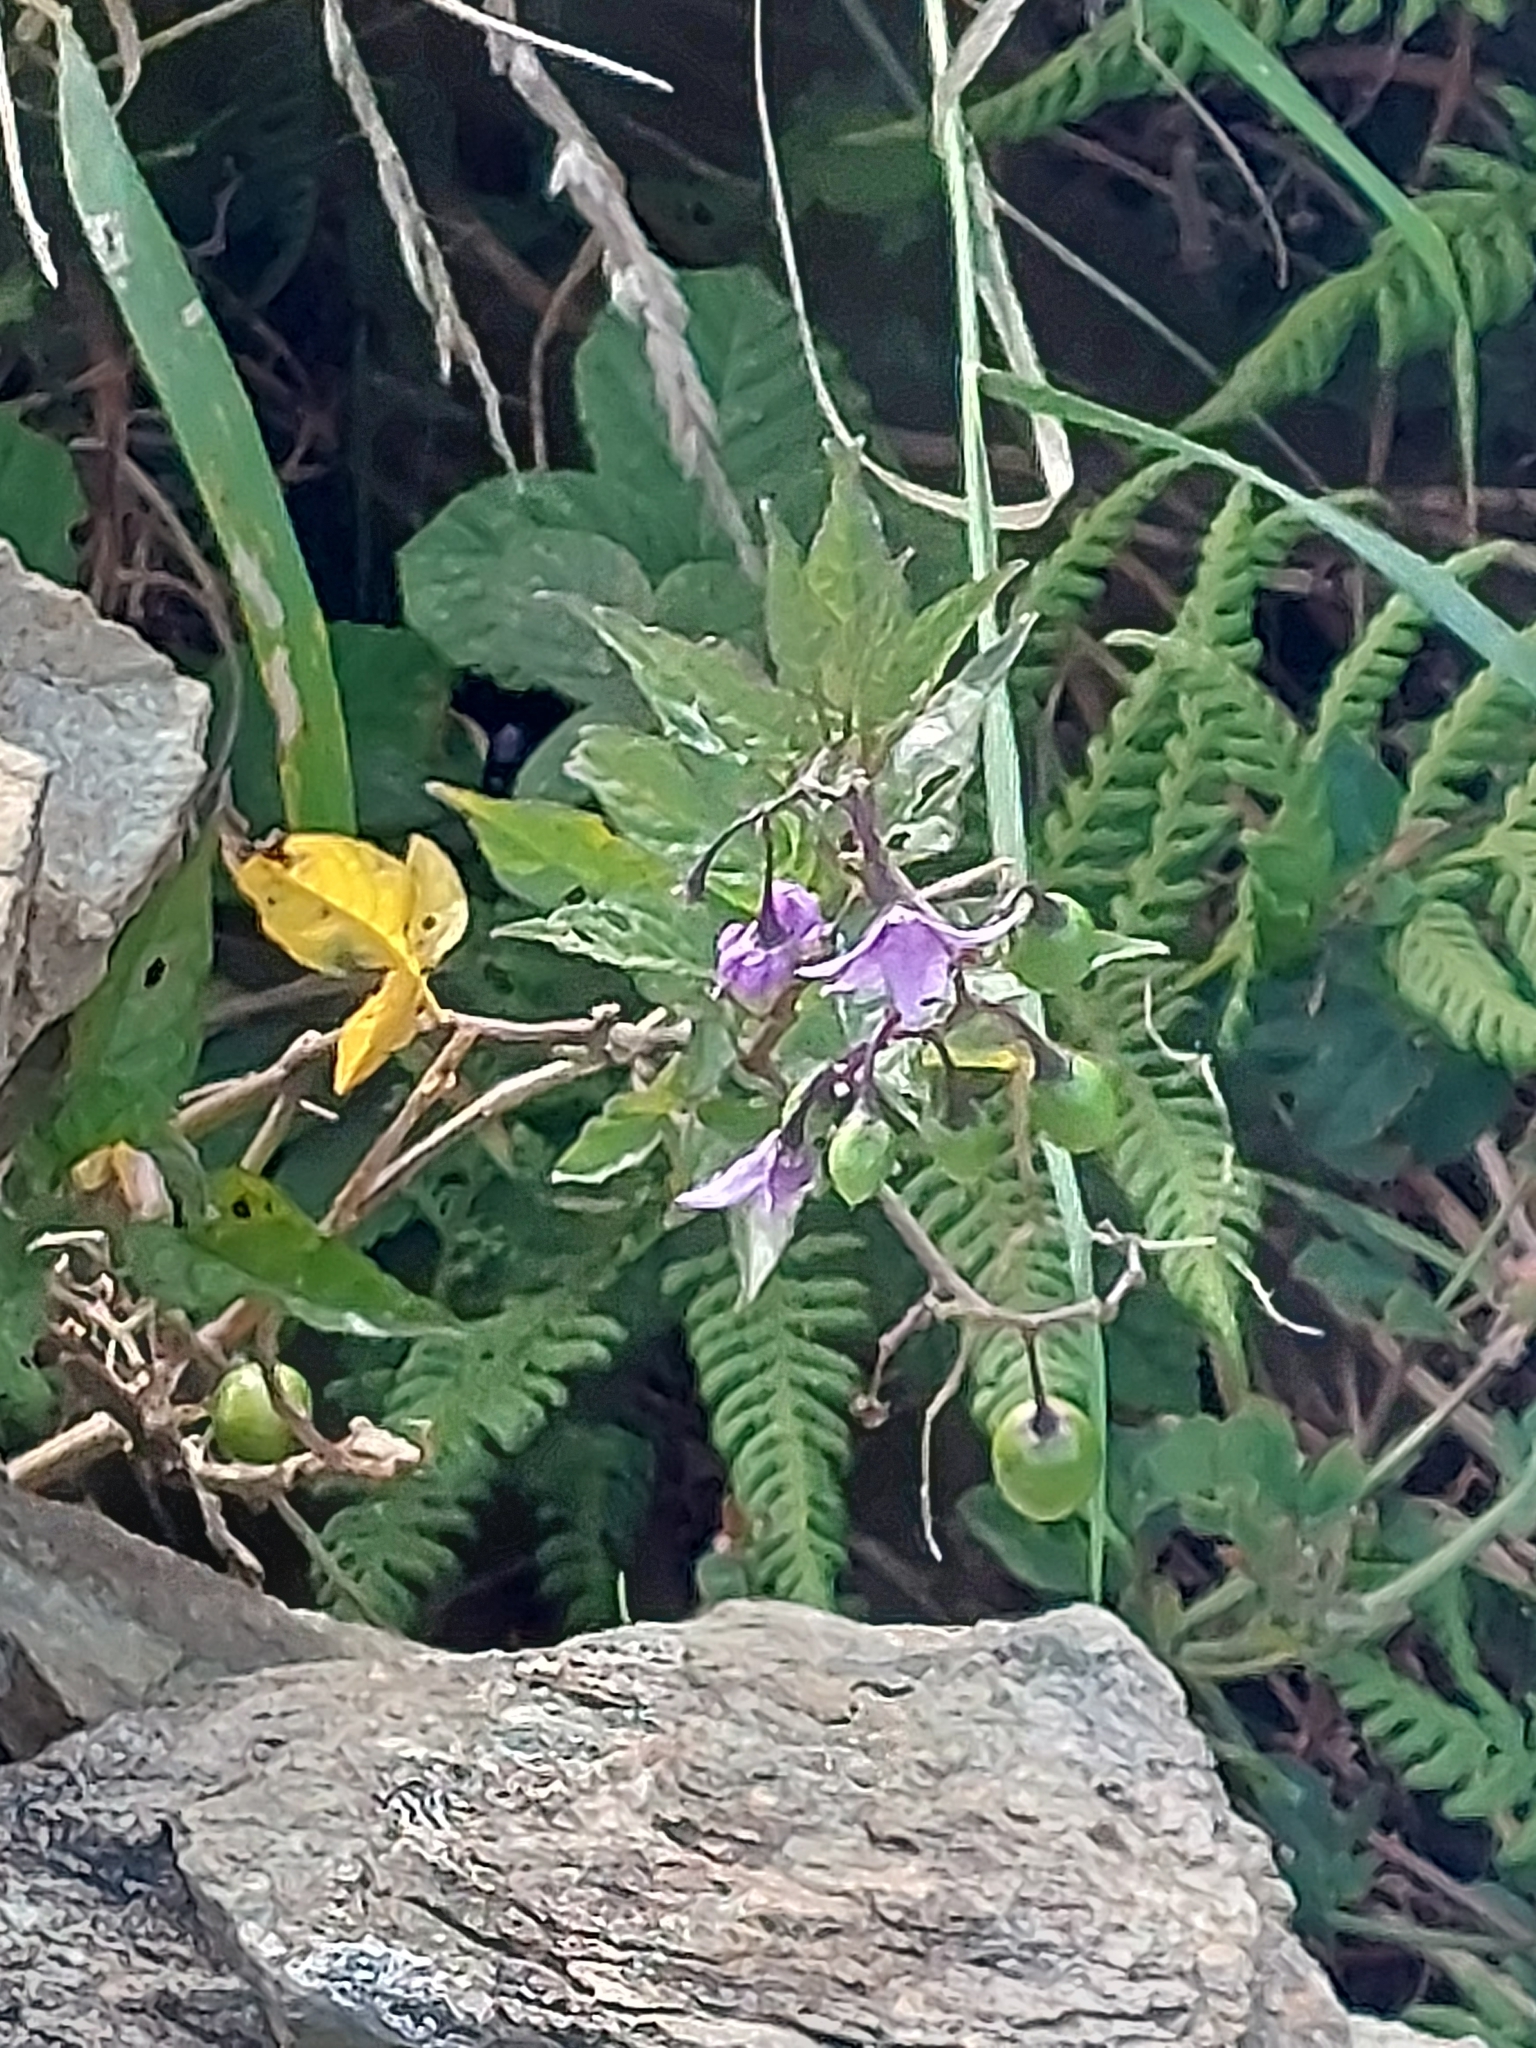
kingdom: Plantae
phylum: Tracheophyta
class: Magnoliopsida
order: Solanales
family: Solanaceae
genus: Solanum
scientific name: Solanum dulcamara
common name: Climbing nightshade
